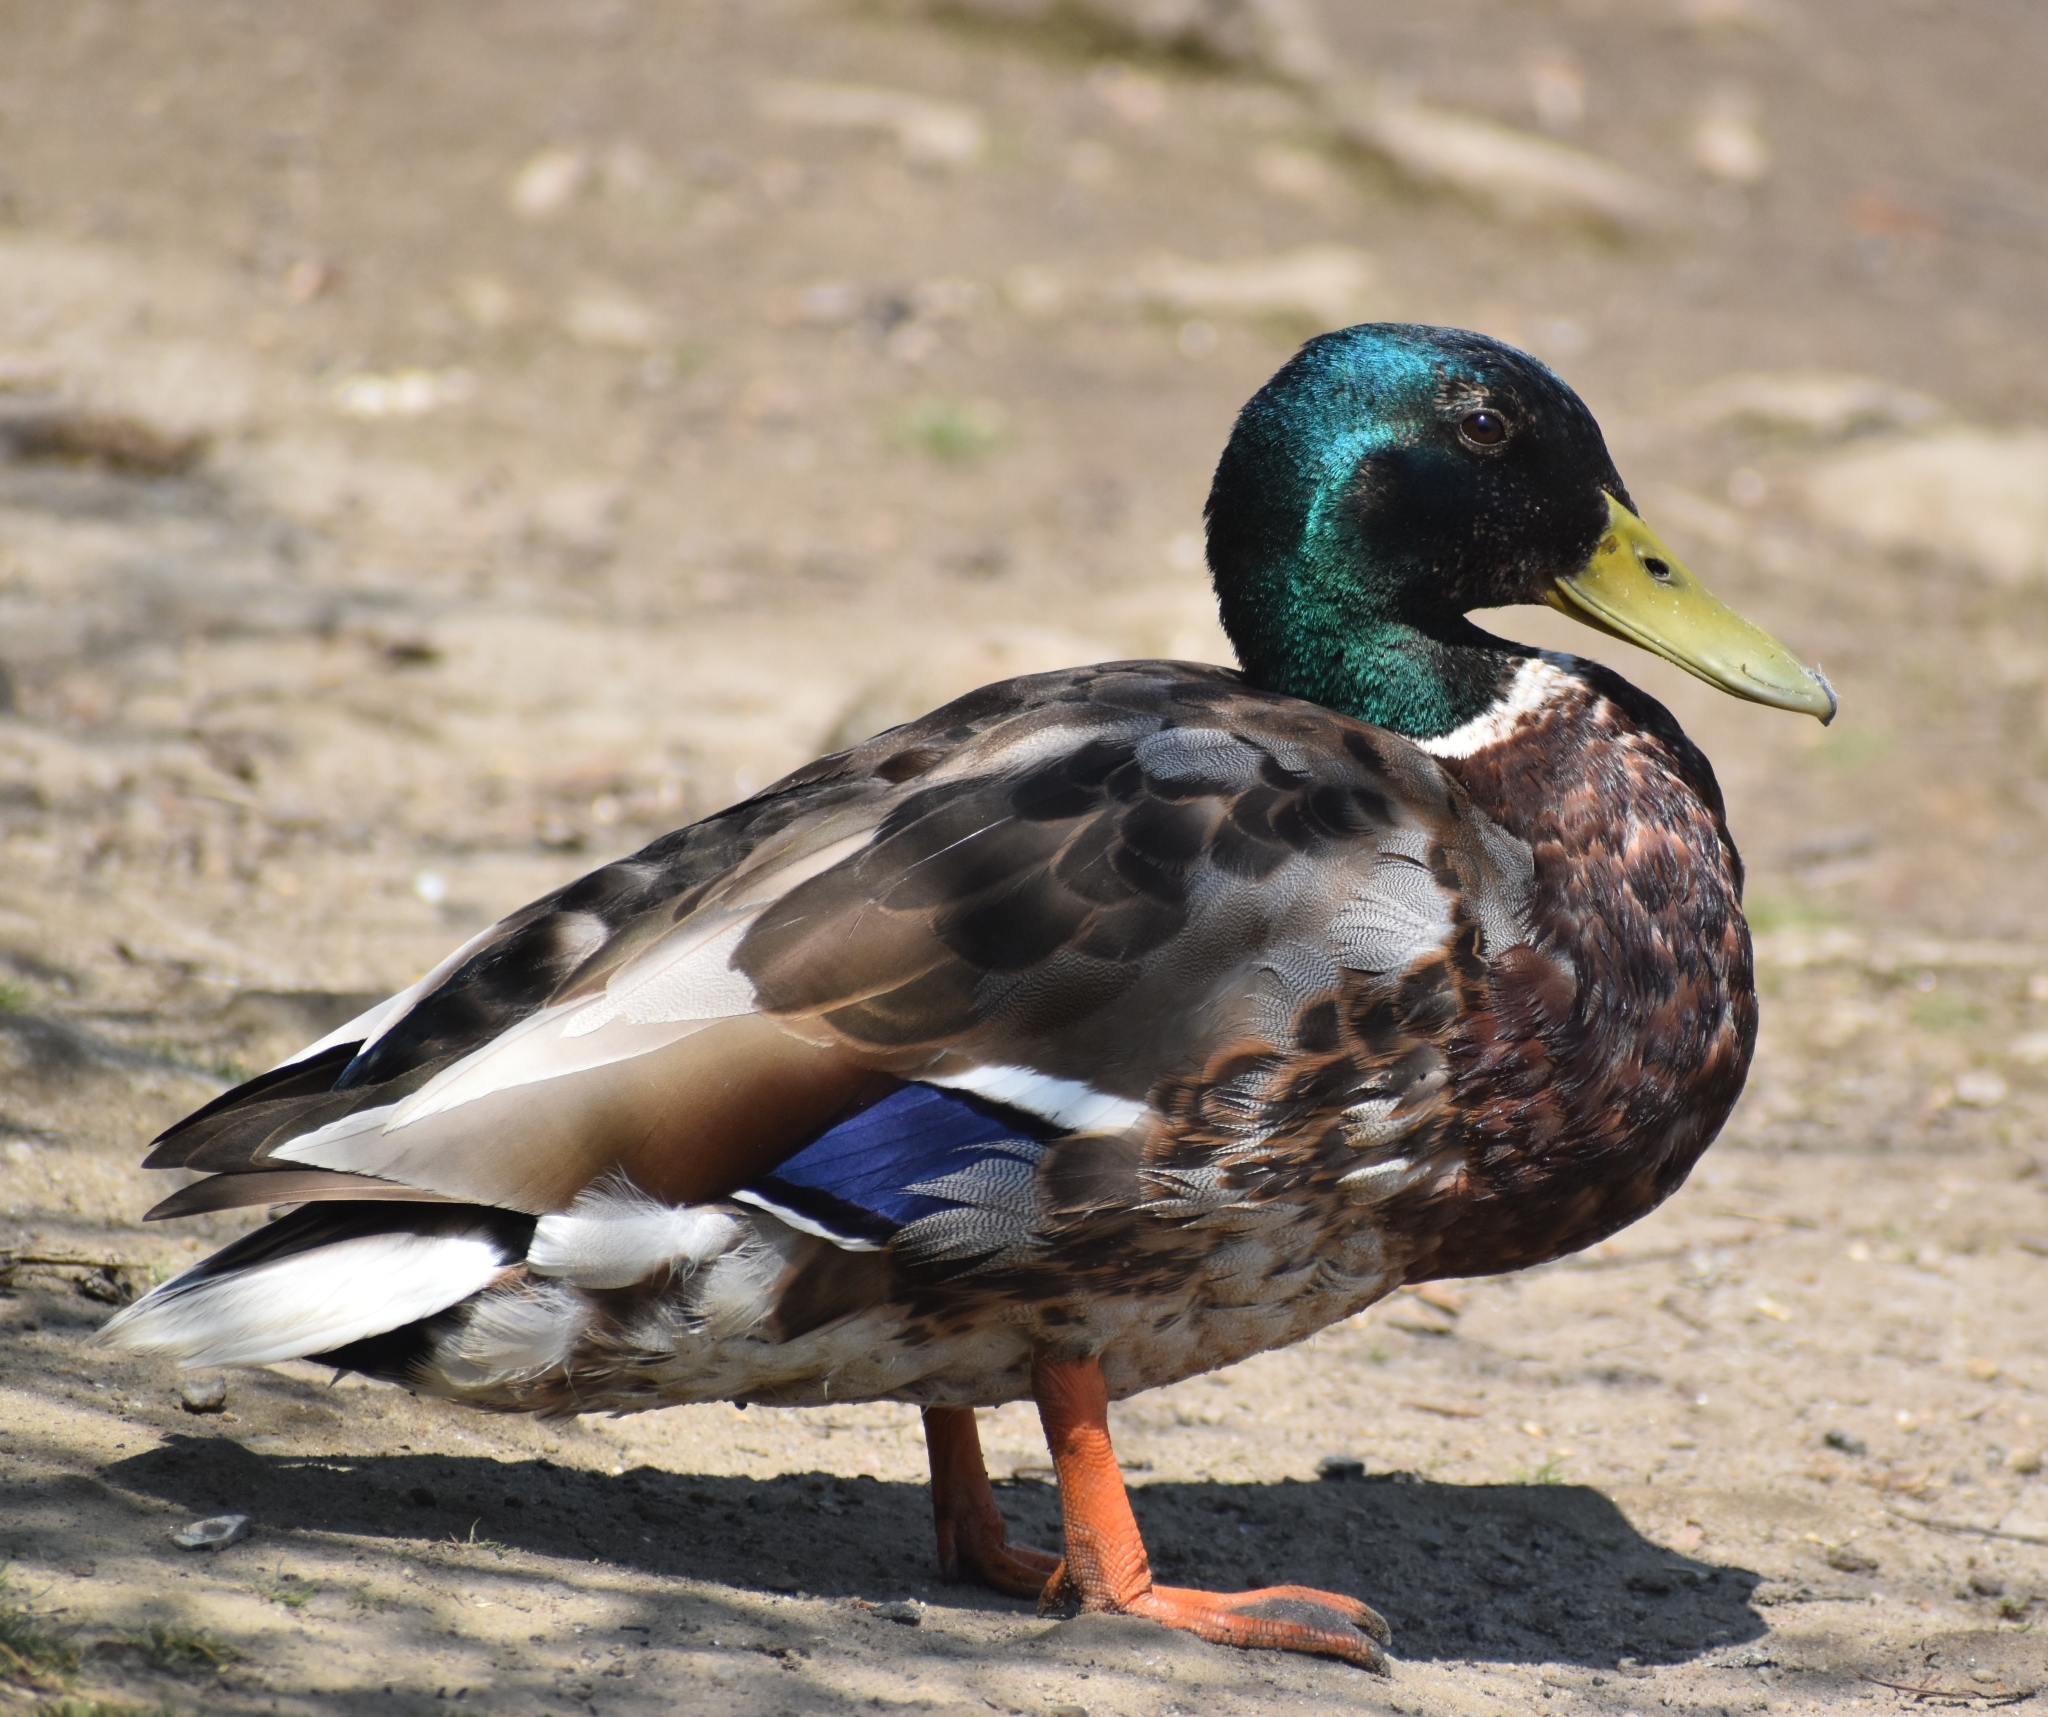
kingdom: Animalia
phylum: Chordata
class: Aves
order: Anseriformes
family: Anatidae
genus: Anas
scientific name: Anas platyrhynchos
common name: Mallard
